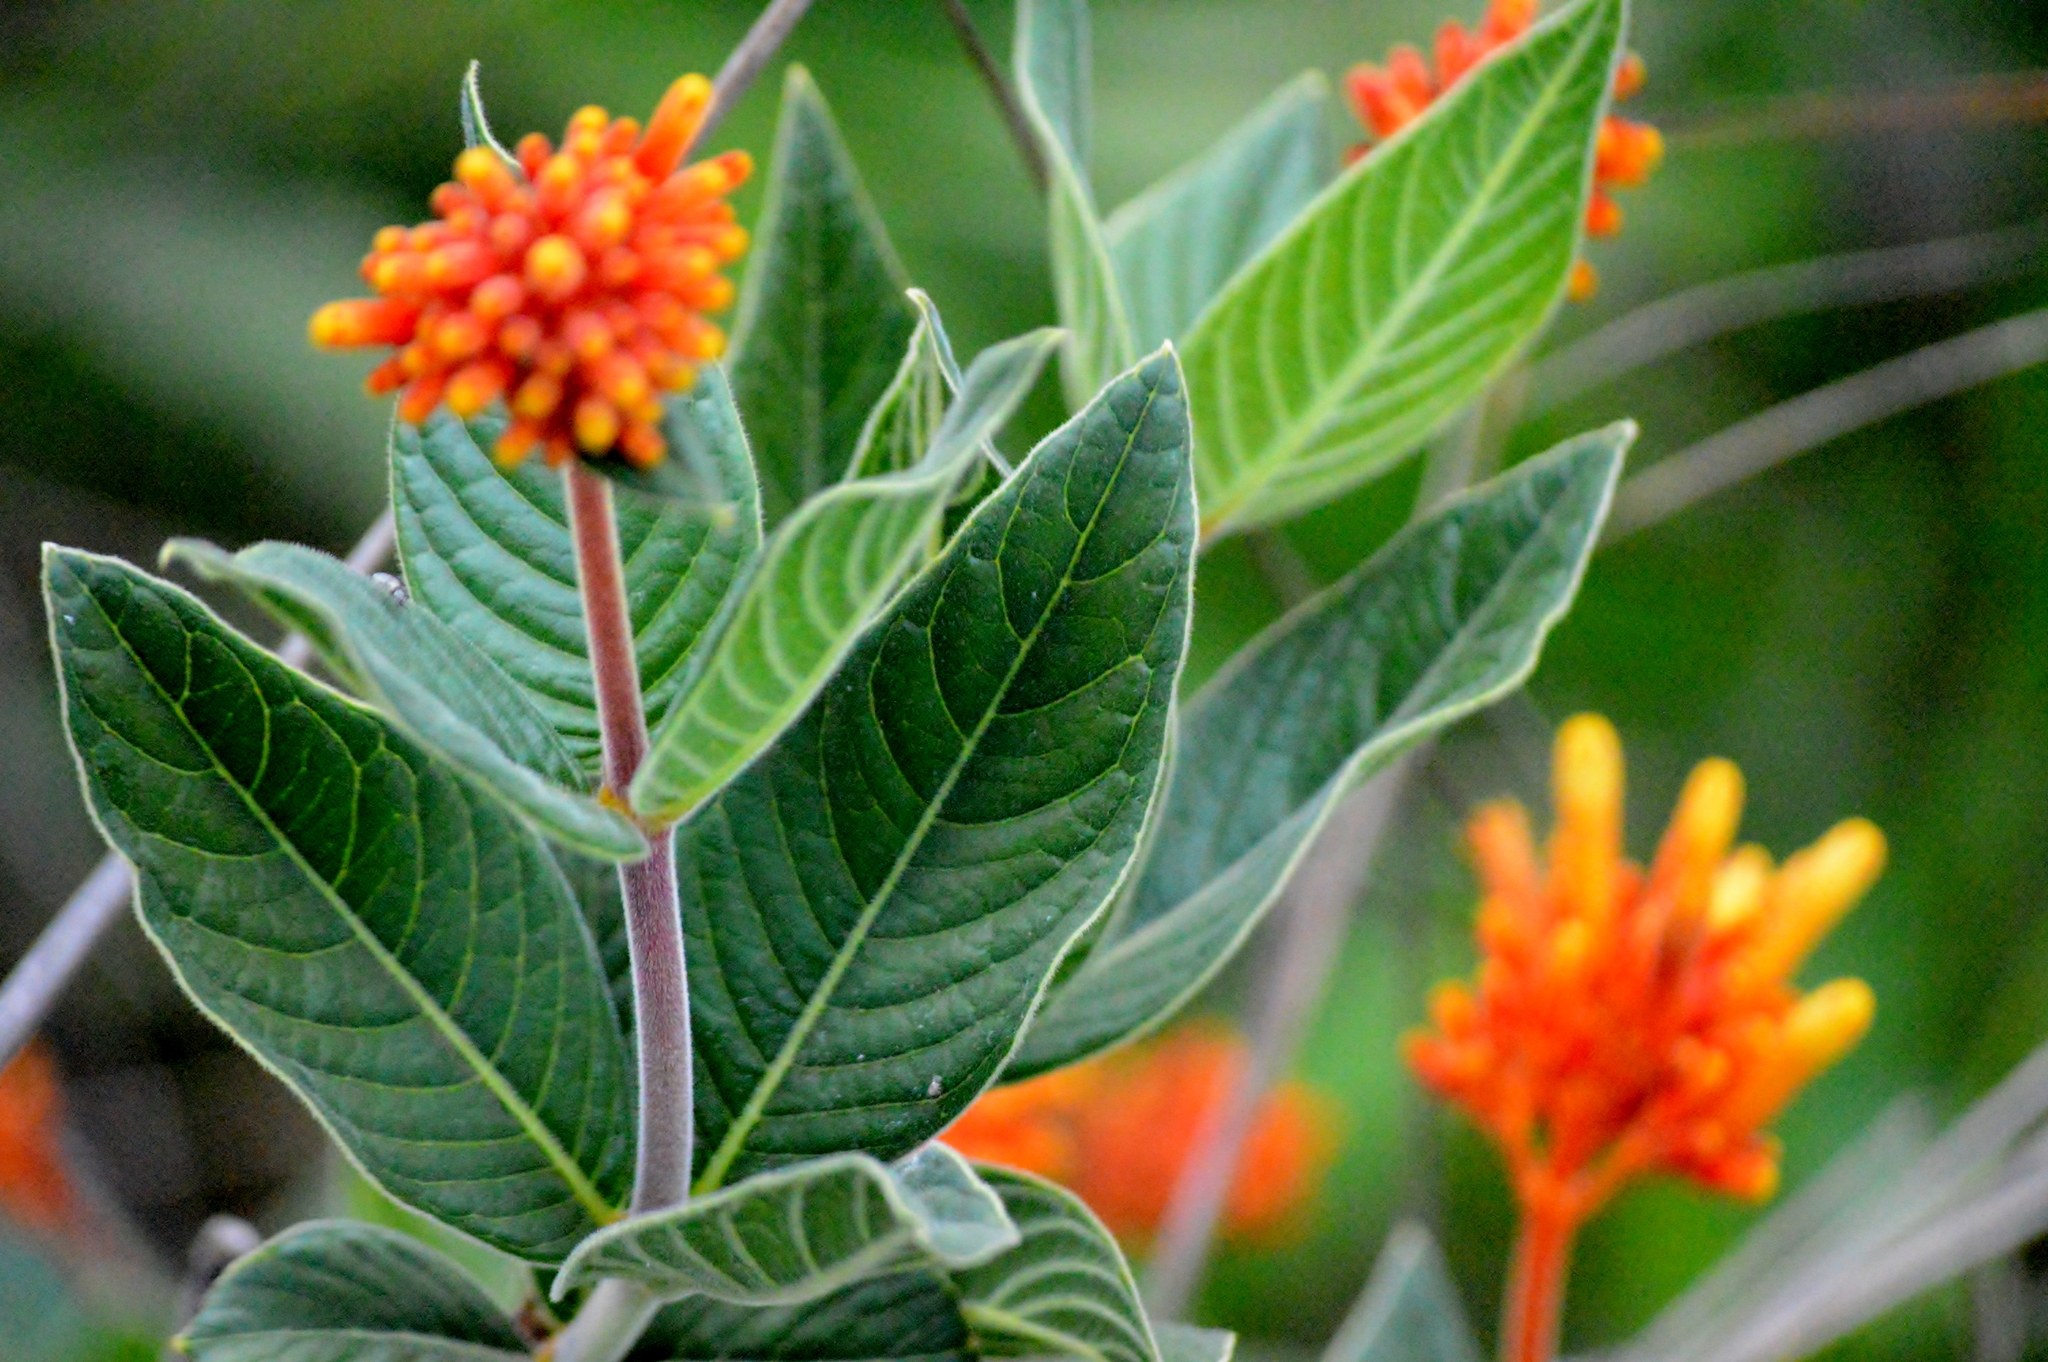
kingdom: Plantae
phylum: Tracheophyta
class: Magnoliopsida
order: Gentianales
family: Rubiaceae
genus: Palicourea
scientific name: Palicourea officinalis
